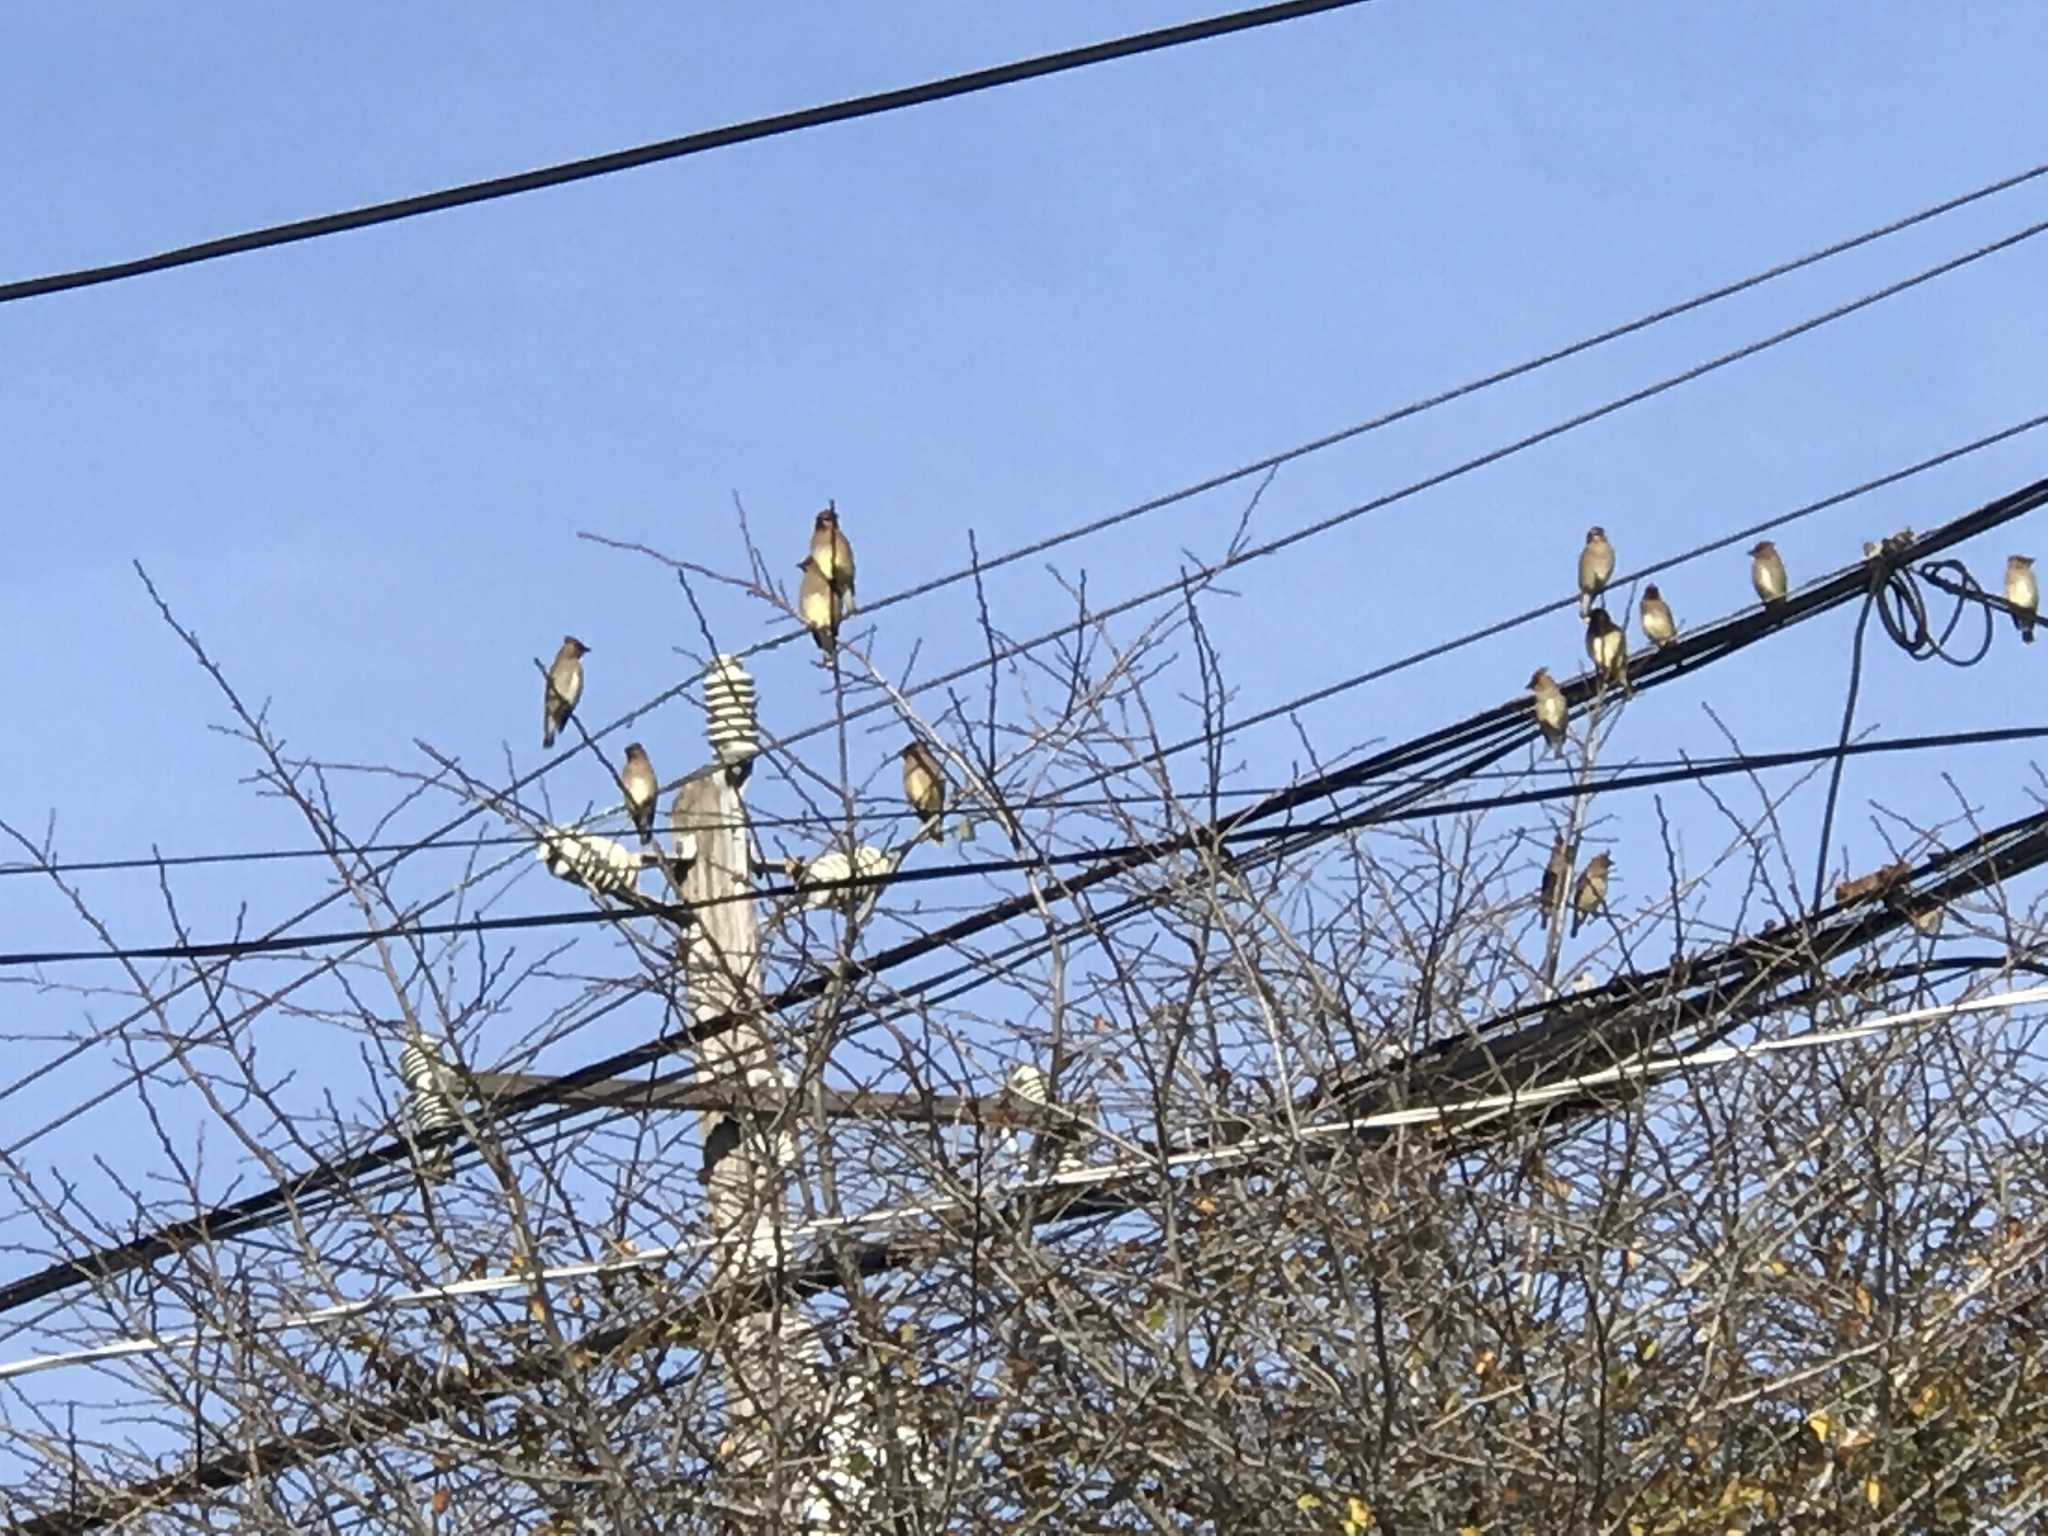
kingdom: Animalia
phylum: Chordata
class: Aves
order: Passeriformes
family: Bombycillidae
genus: Bombycilla
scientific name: Bombycilla cedrorum
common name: Cedar waxwing
